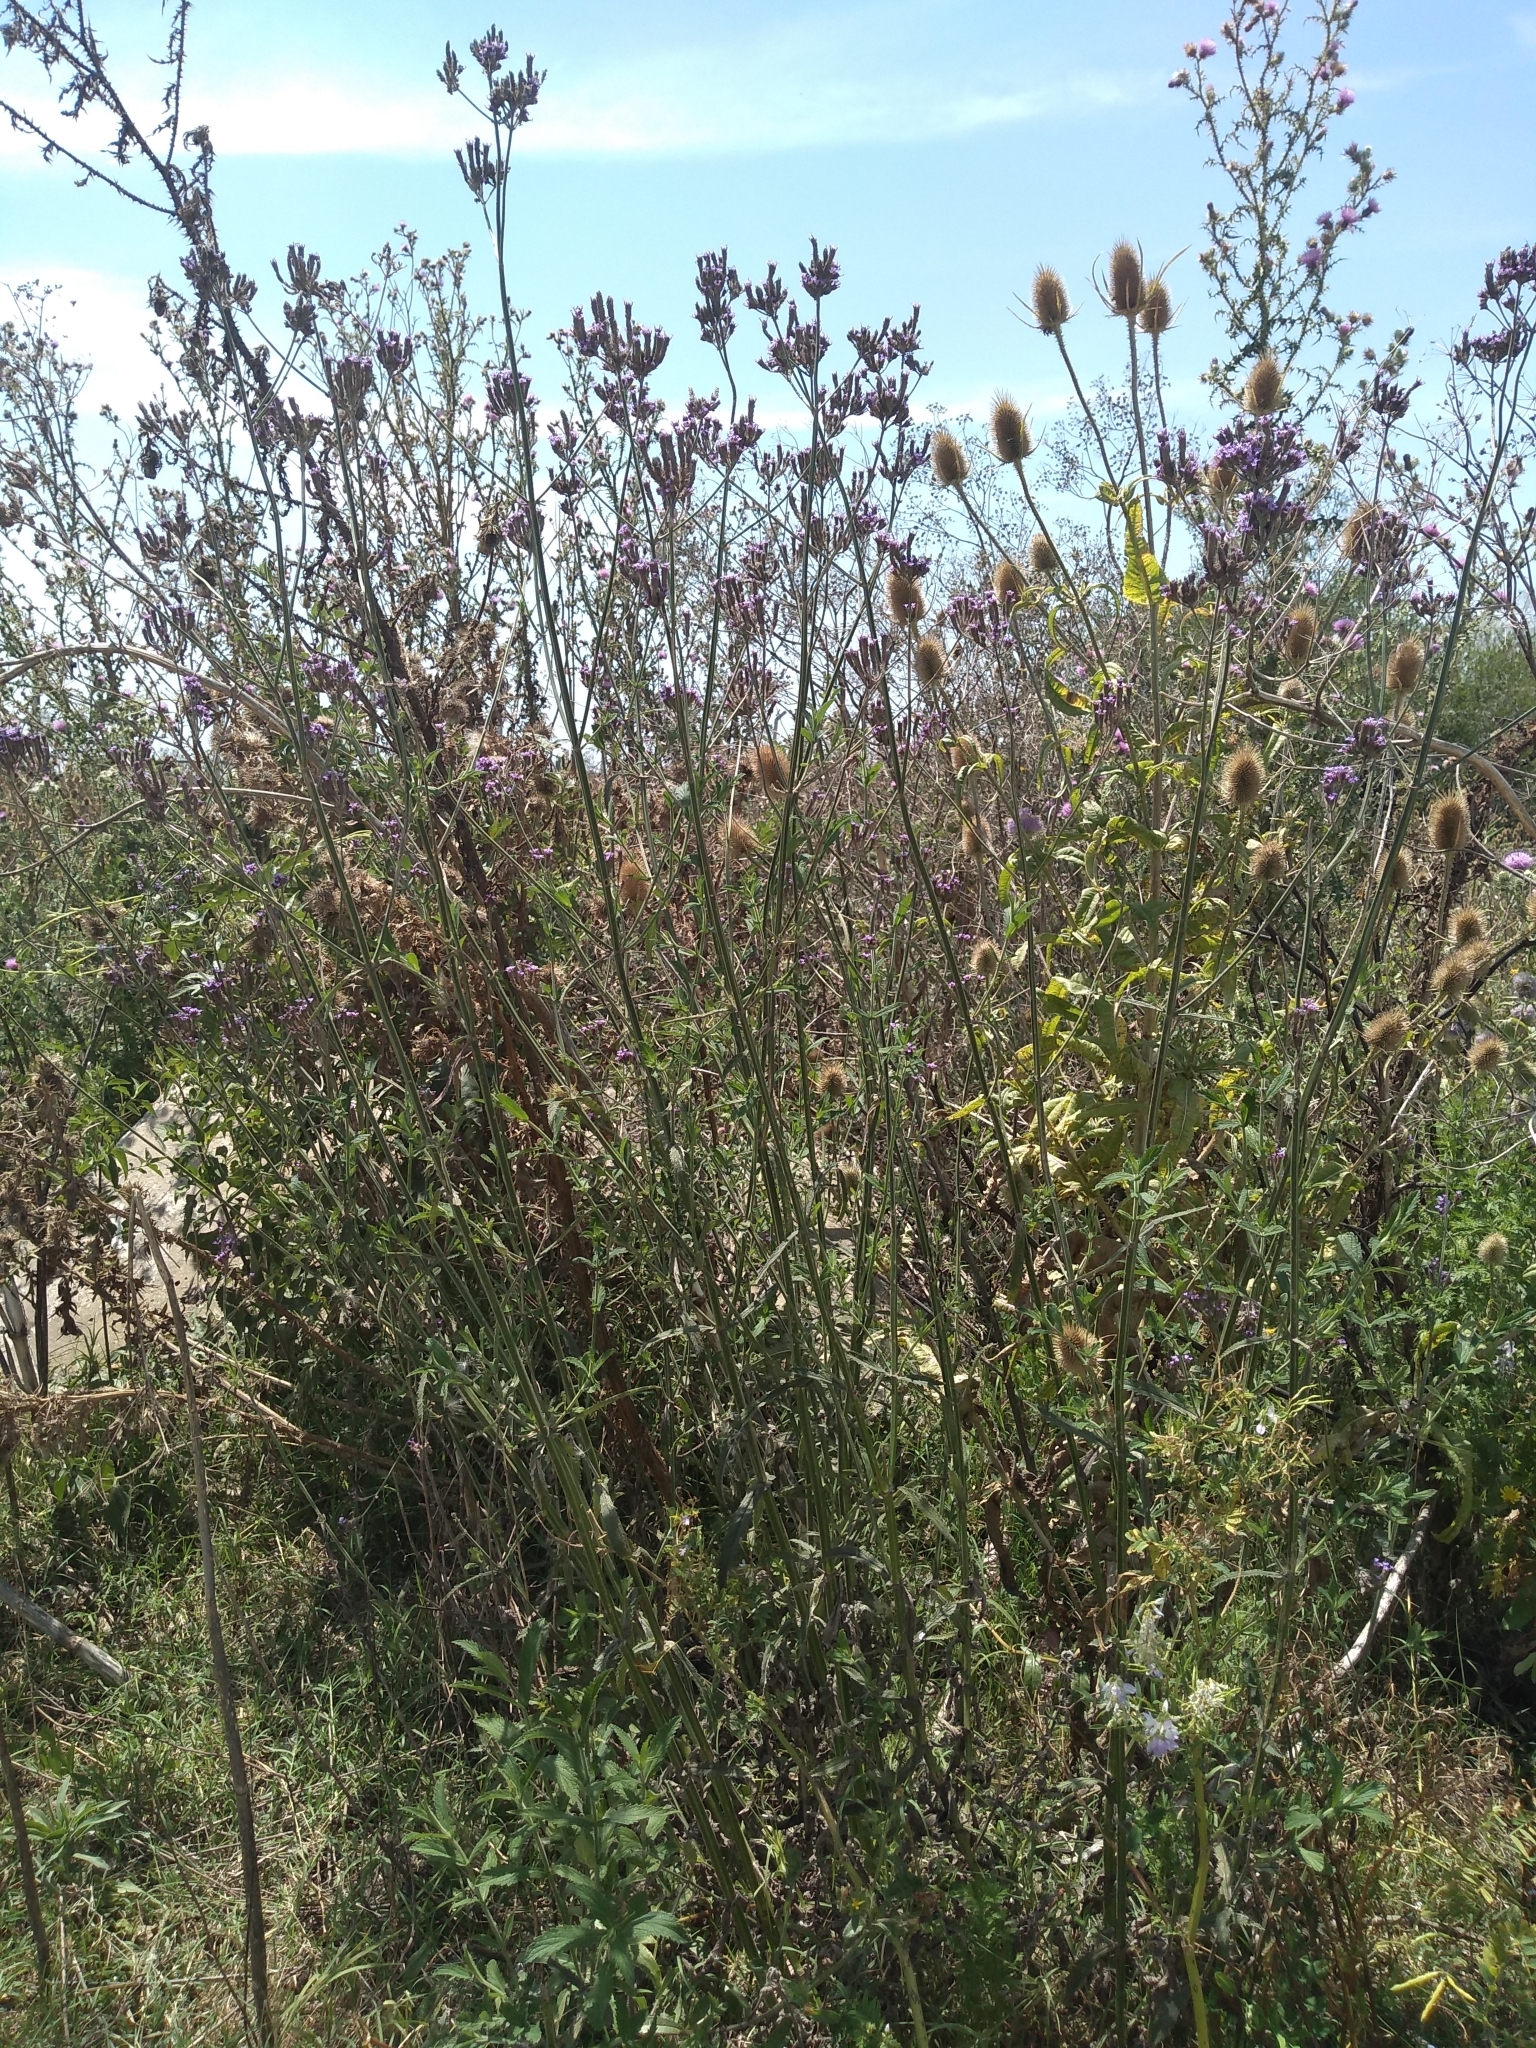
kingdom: Plantae
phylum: Tracheophyta
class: Magnoliopsida
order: Lamiales
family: Verbenaceae
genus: Verbena
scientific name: Verbena bonariensis
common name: Purpletop vervain
